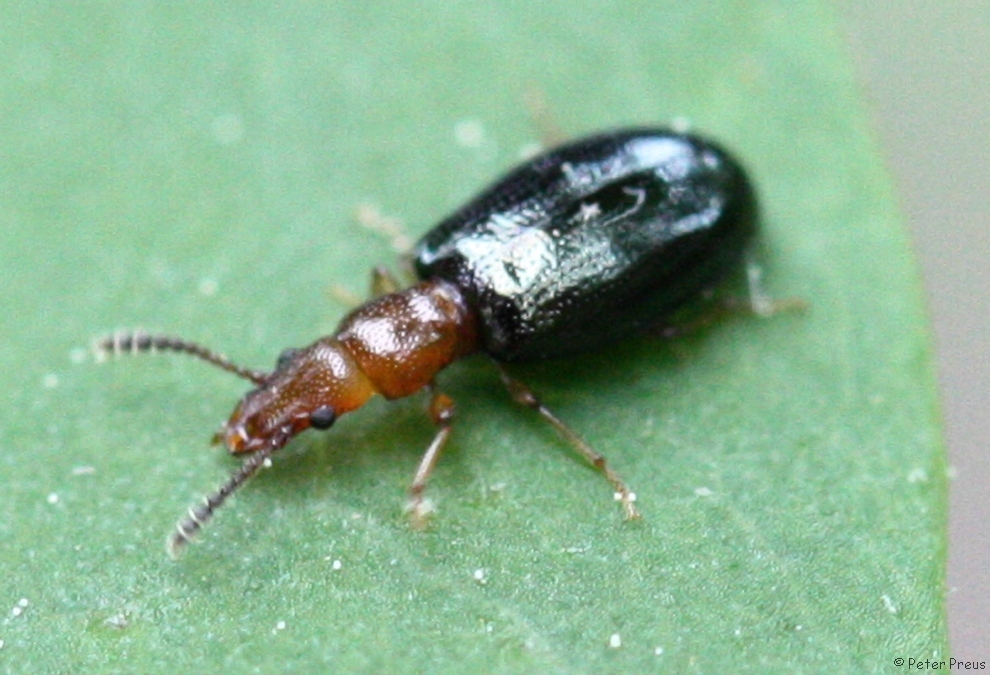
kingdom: Animalia
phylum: Arthropoda
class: Insecta
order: Coleoptera
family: Salpingidae
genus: Vincenzellus
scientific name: Vincenzellus ruficollis
